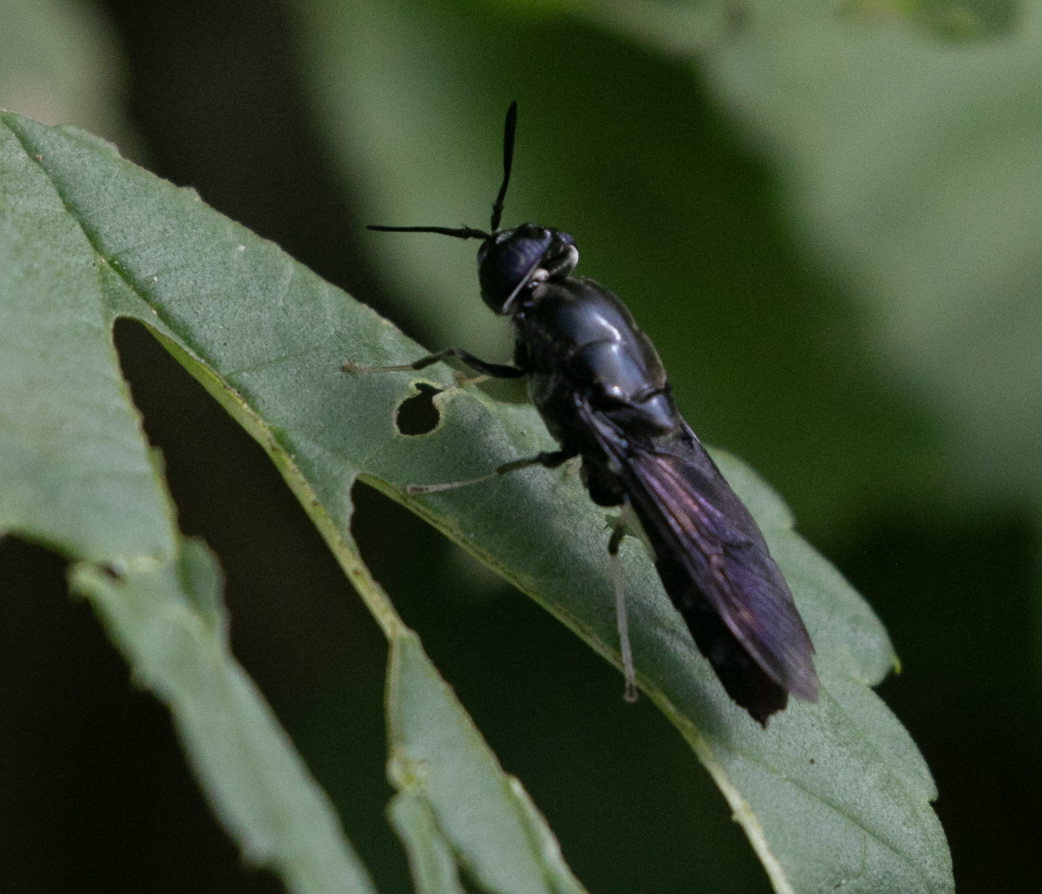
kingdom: Animalia
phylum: Arthropoda
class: Insecta
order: Diptera
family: Stratiomyidae
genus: Hermetia
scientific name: Hermetia illucens
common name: Black soldier fly
